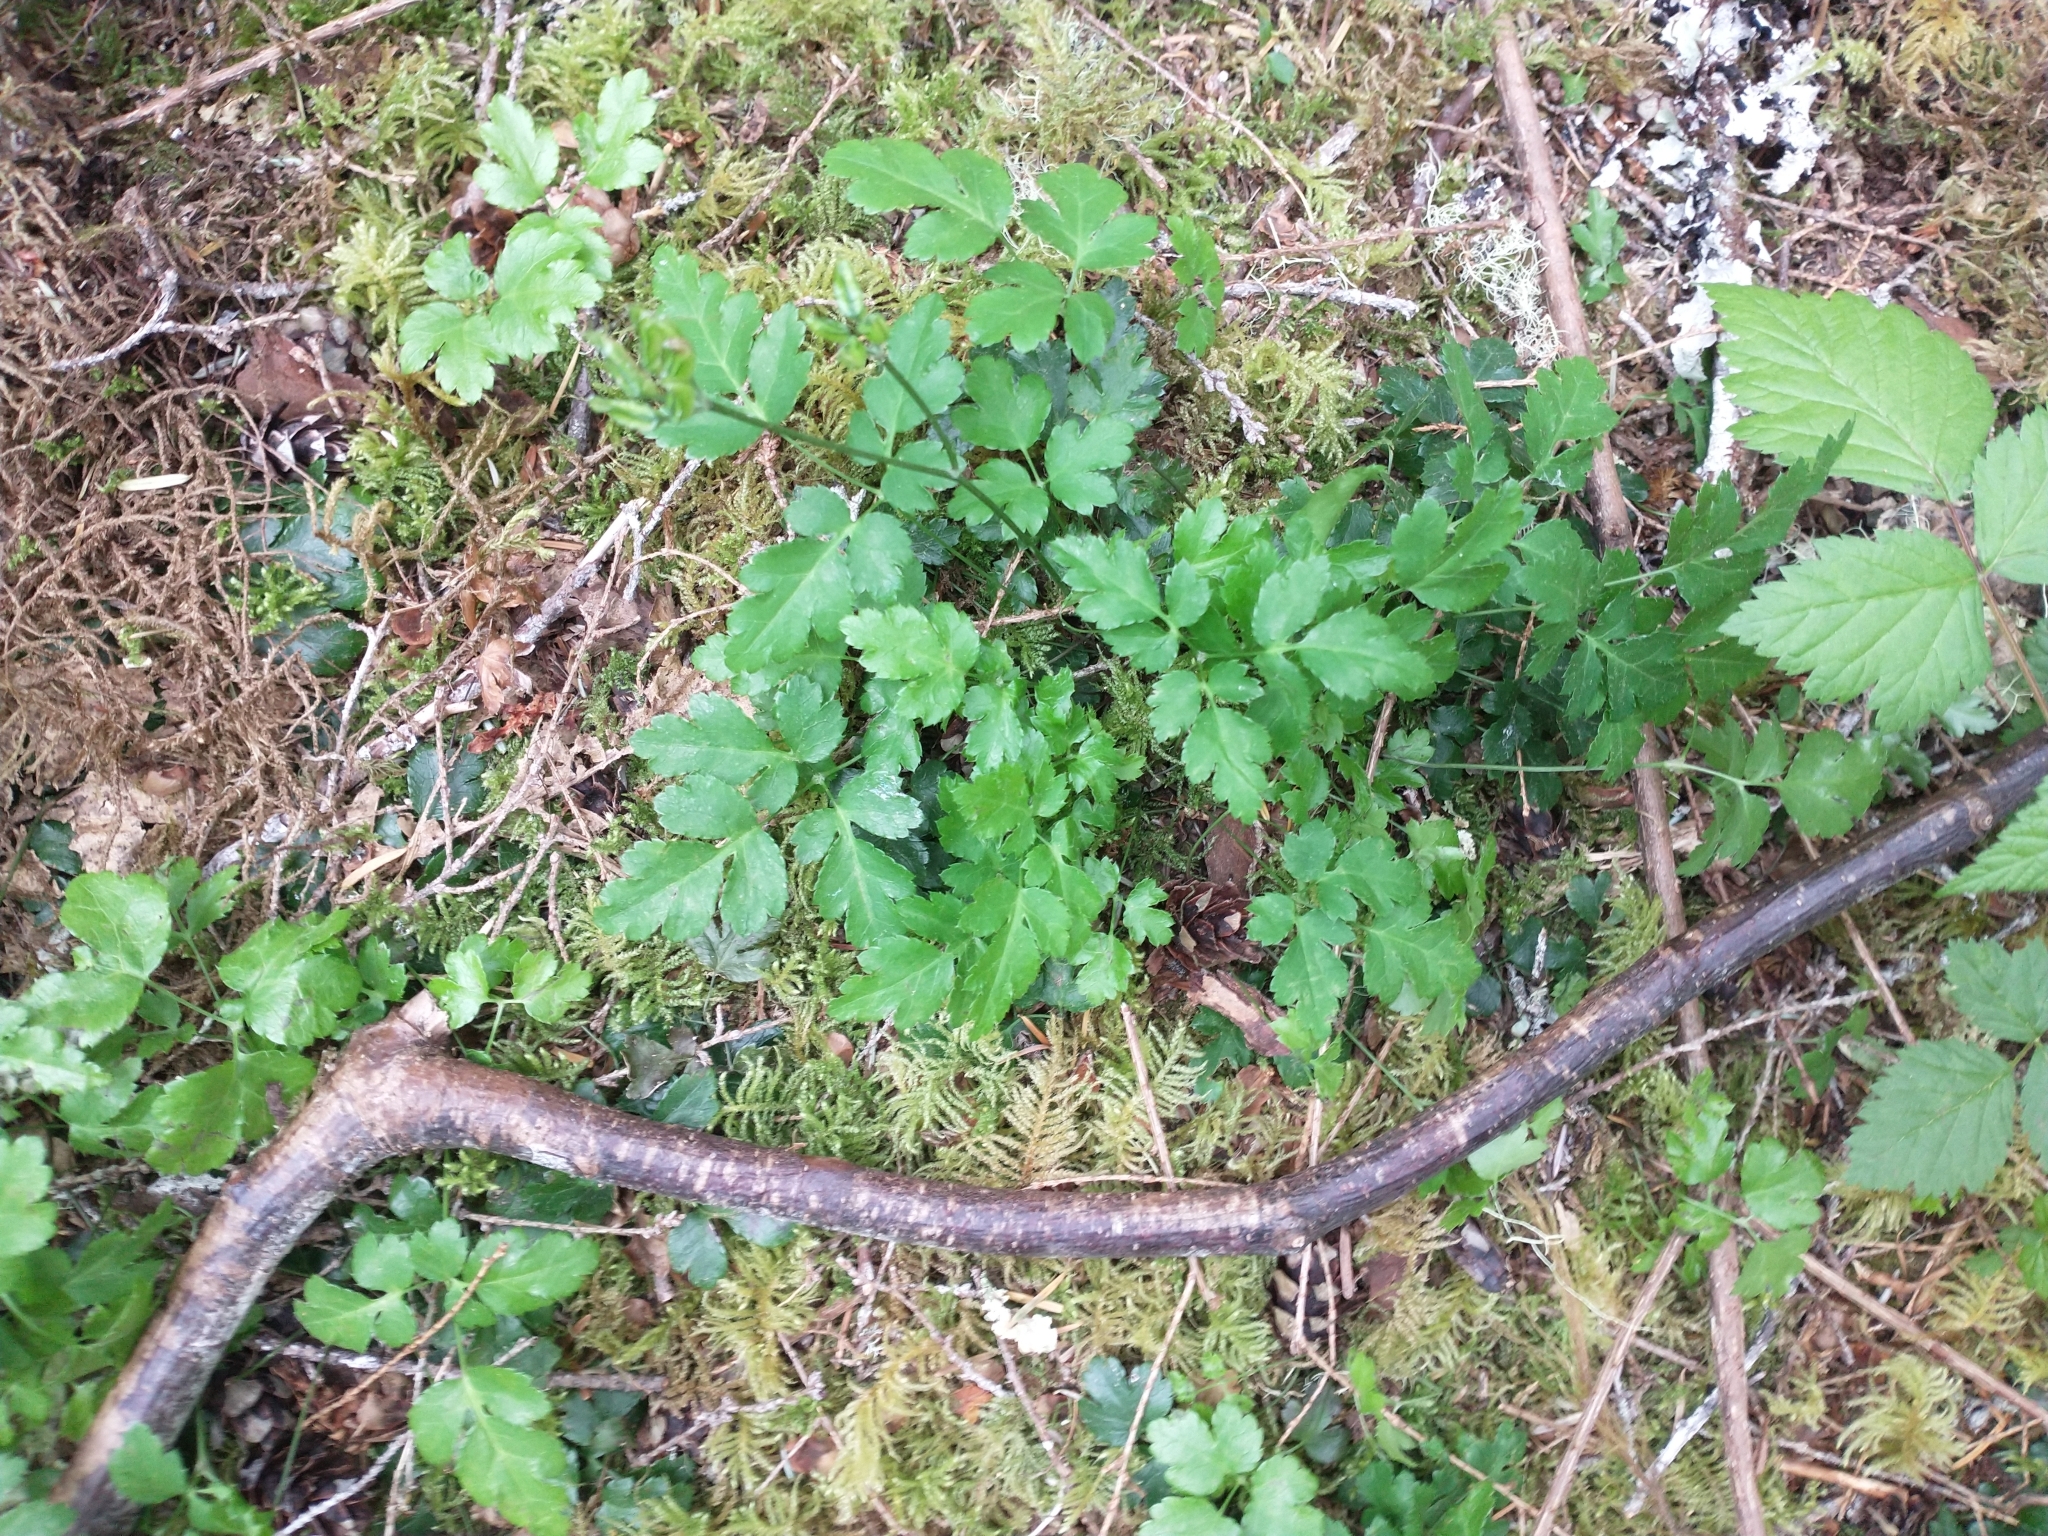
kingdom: Plantae
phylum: Tracheophyta
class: Magnoliopsida
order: Ranunculales
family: Ranunculaceae
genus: Coptis
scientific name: Coptis laciniata
